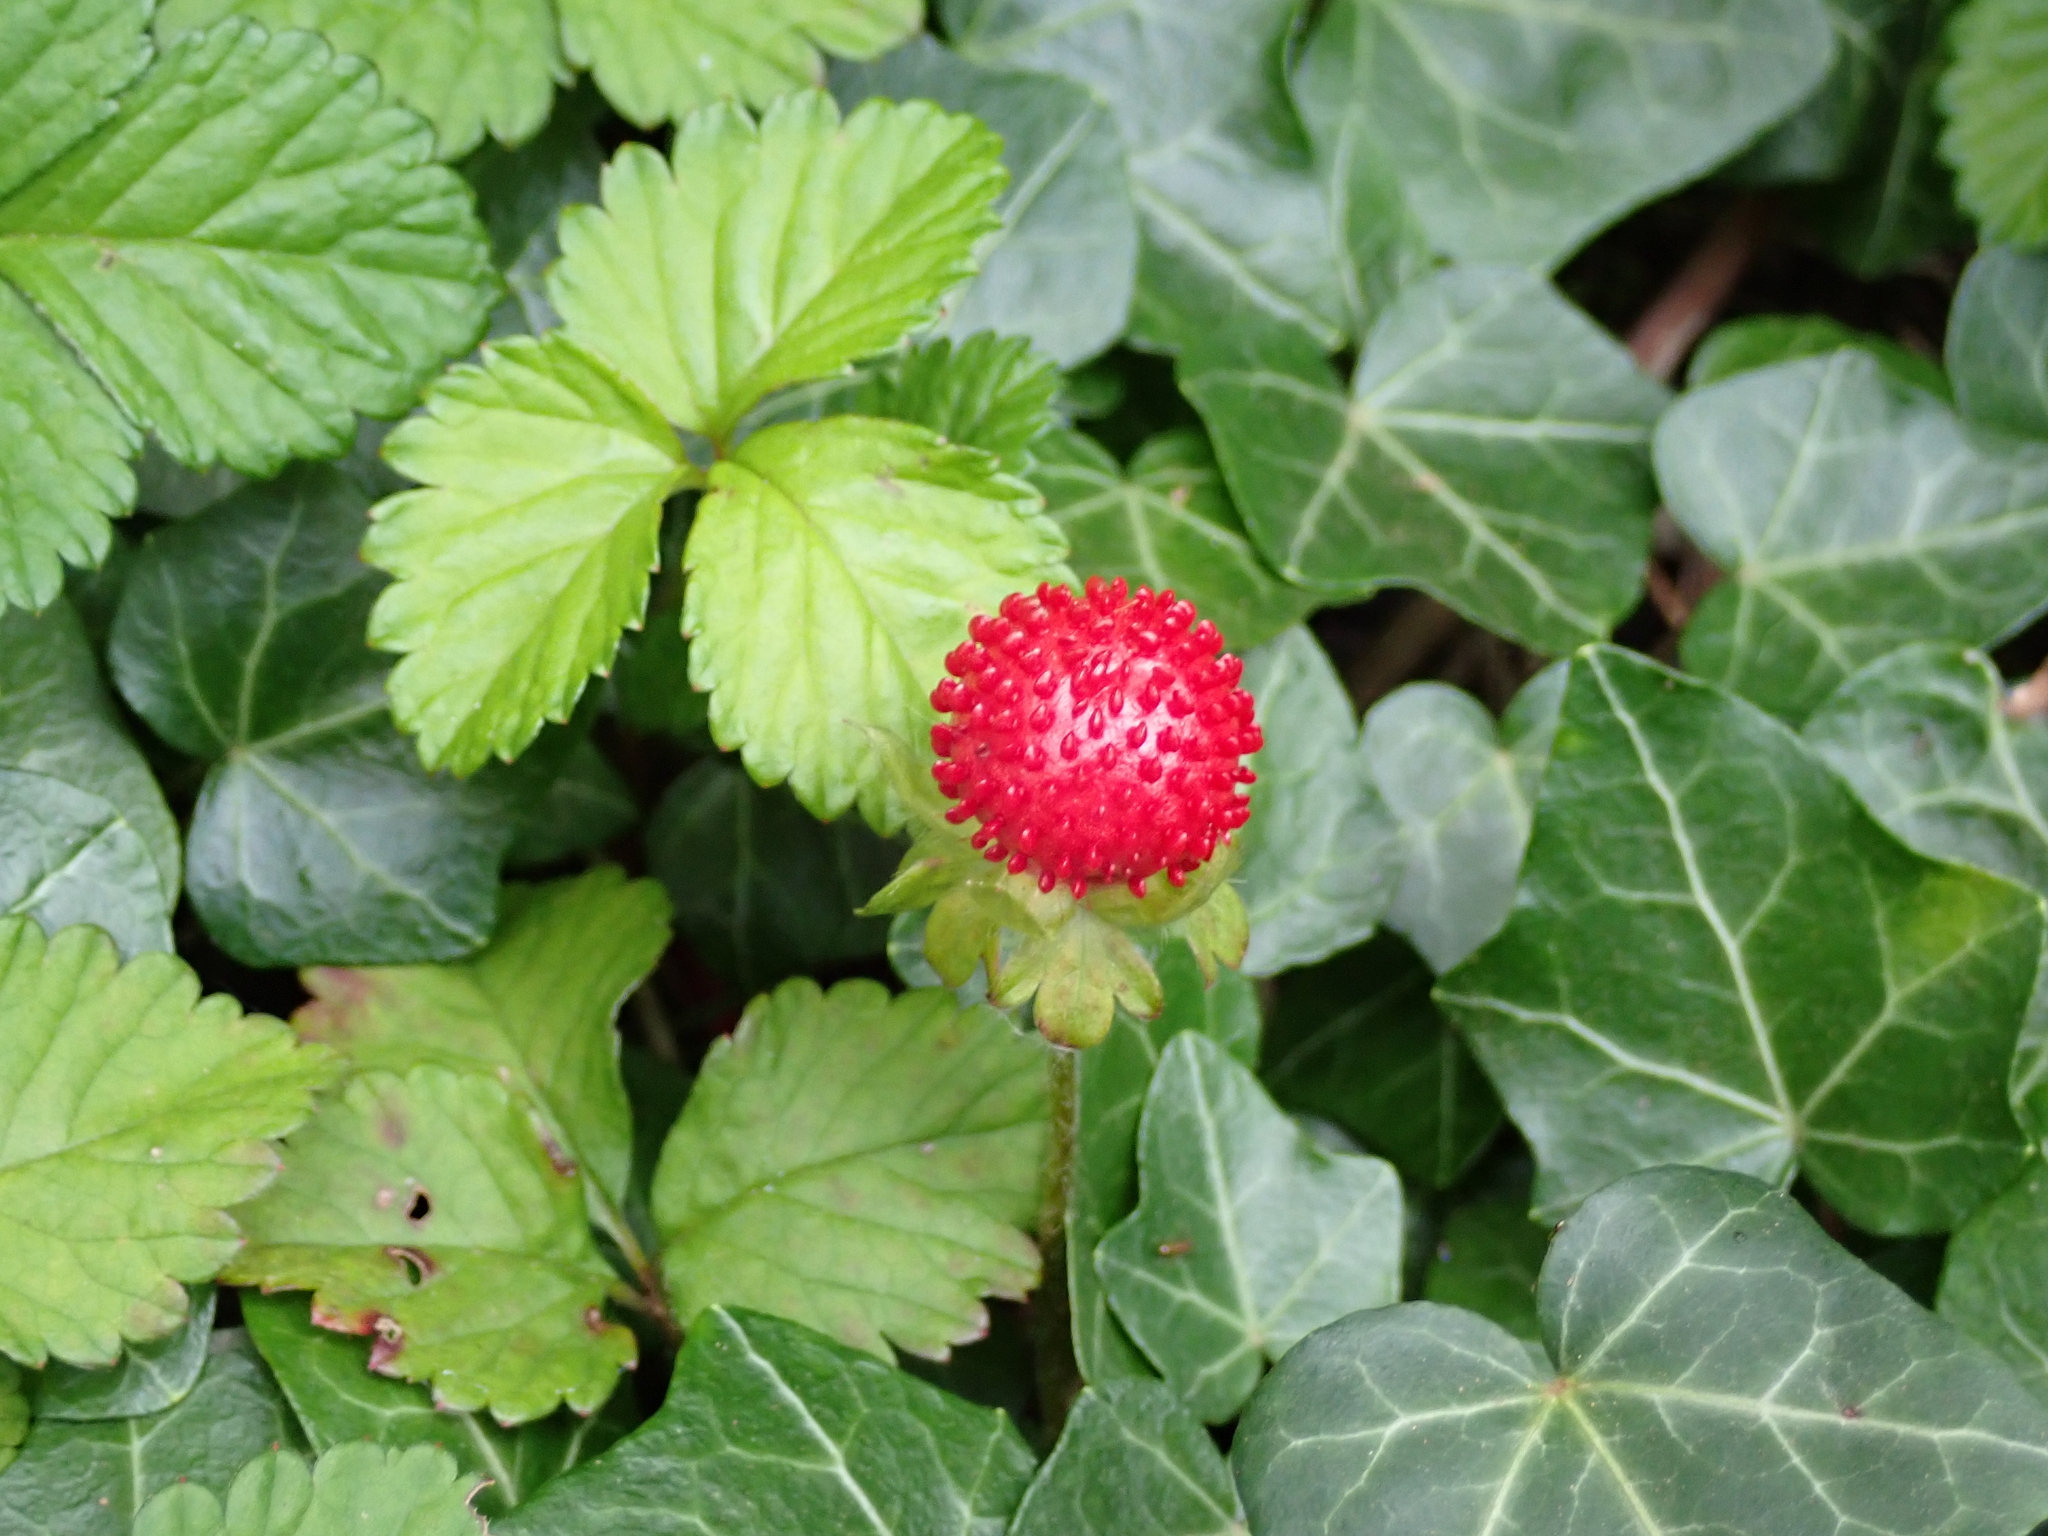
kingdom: Plantae
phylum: Tracheophyta
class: Magnoliopsida
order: Rosales
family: Rosaceae
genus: Potentilla
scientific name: Potentilla indica
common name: Yellow-flowered strawberry
